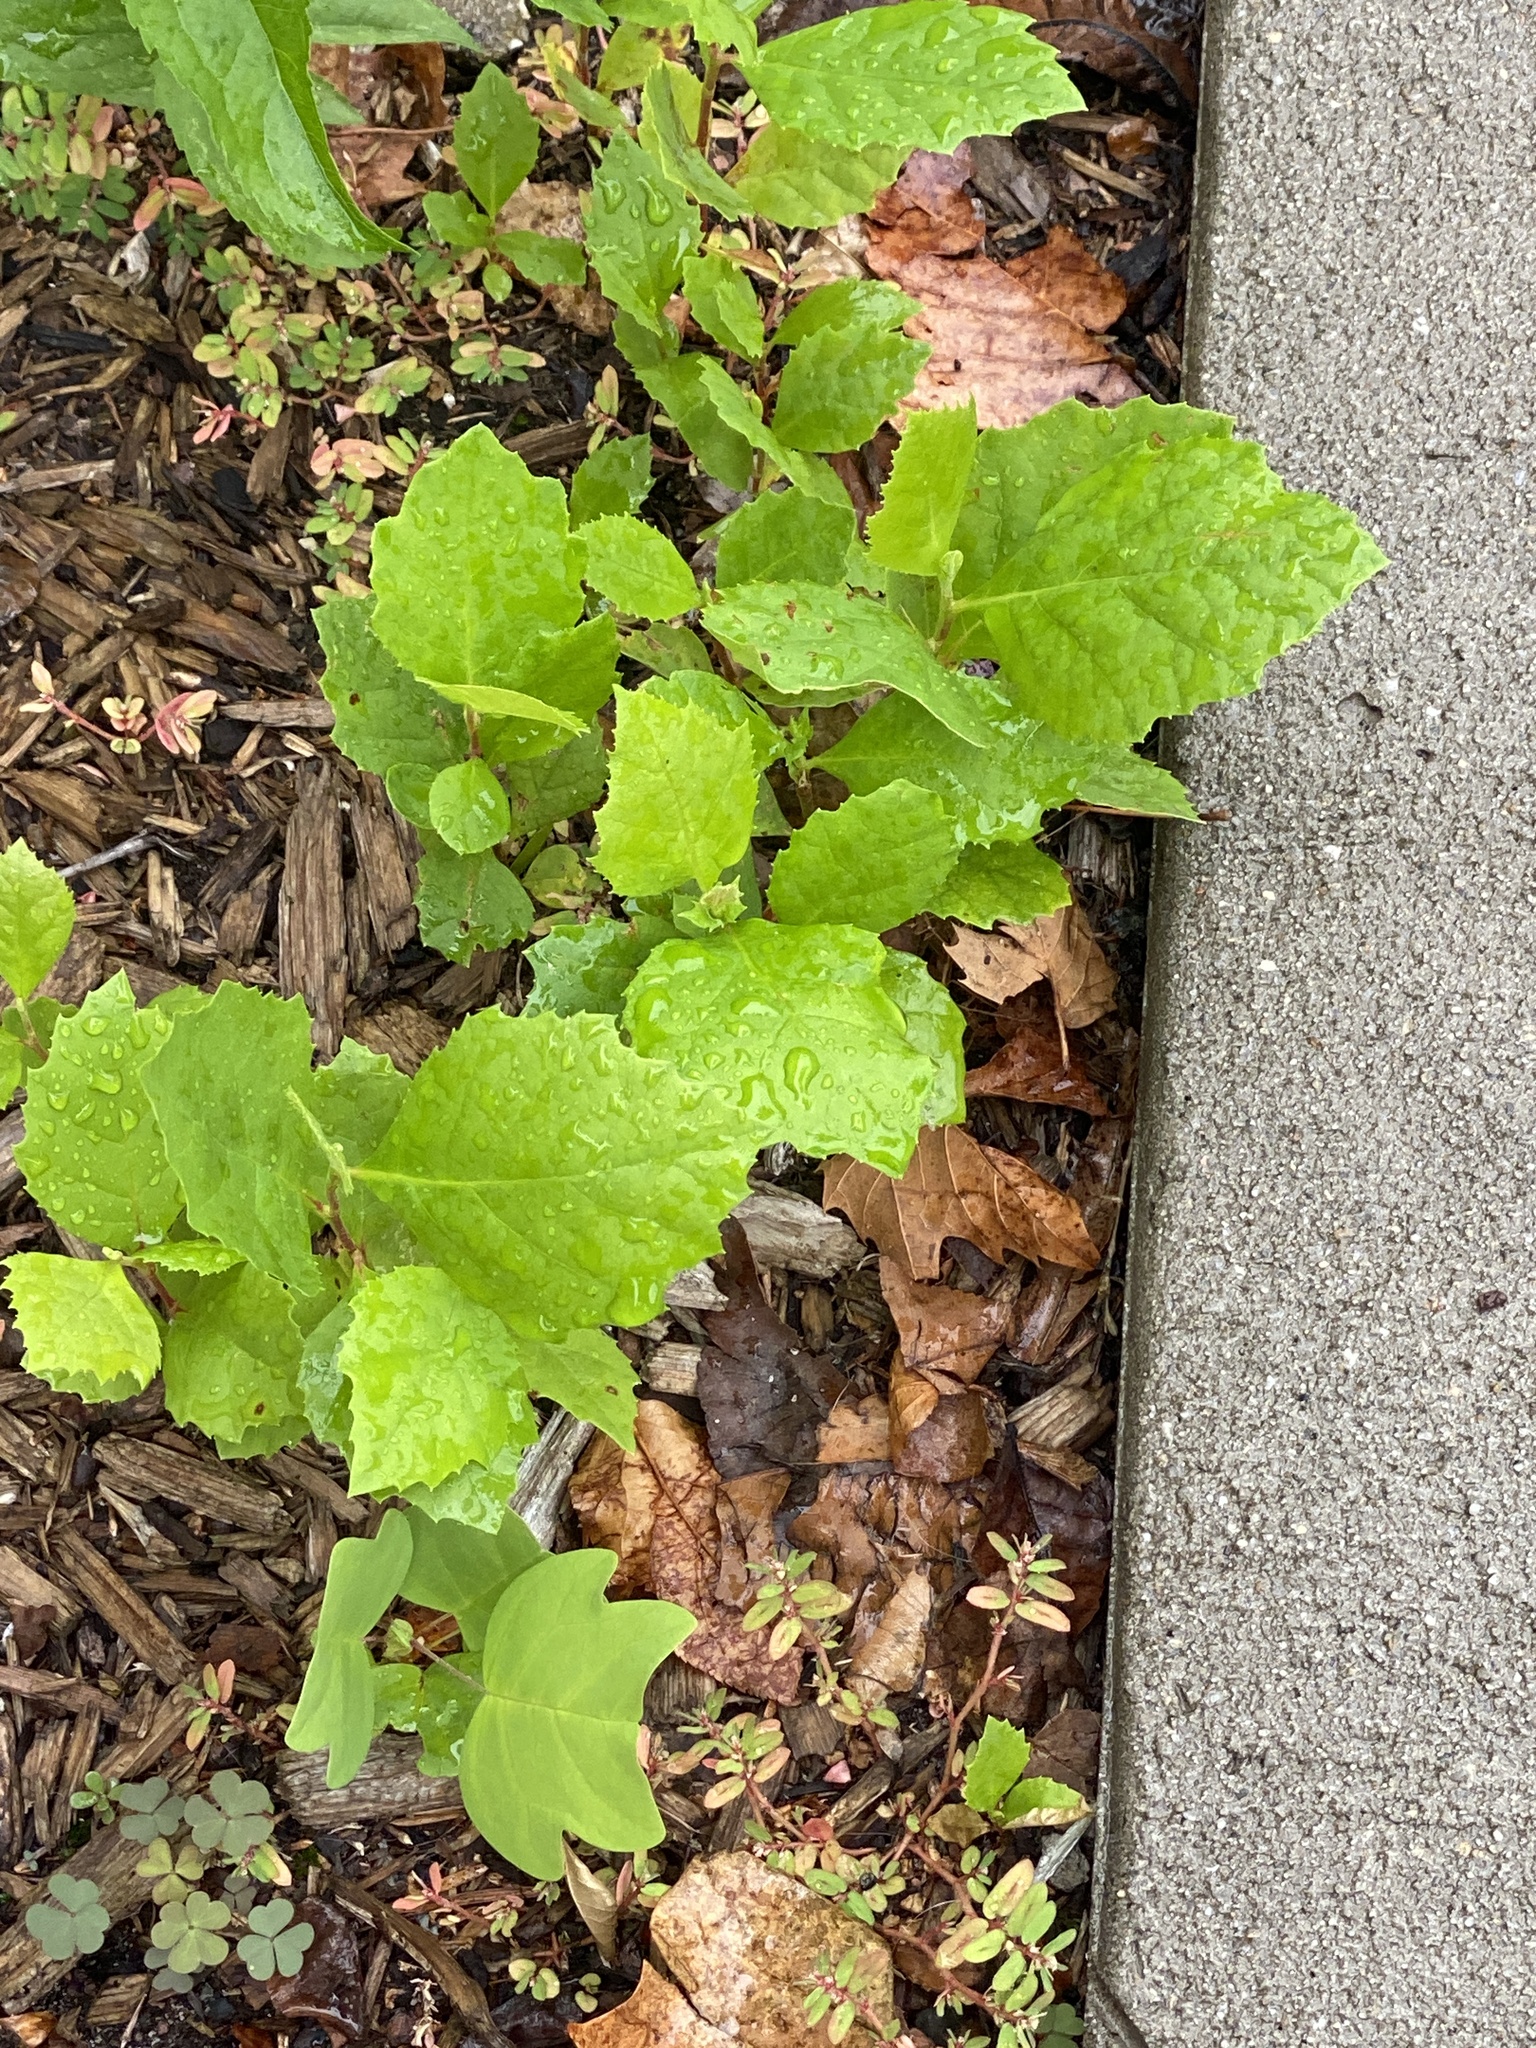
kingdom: Plantae
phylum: Tracheophyta
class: Magnoliopsida
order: Proteales
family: Platanaceae
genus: Platanus
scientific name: Platanus occidentalis
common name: American sycamore
